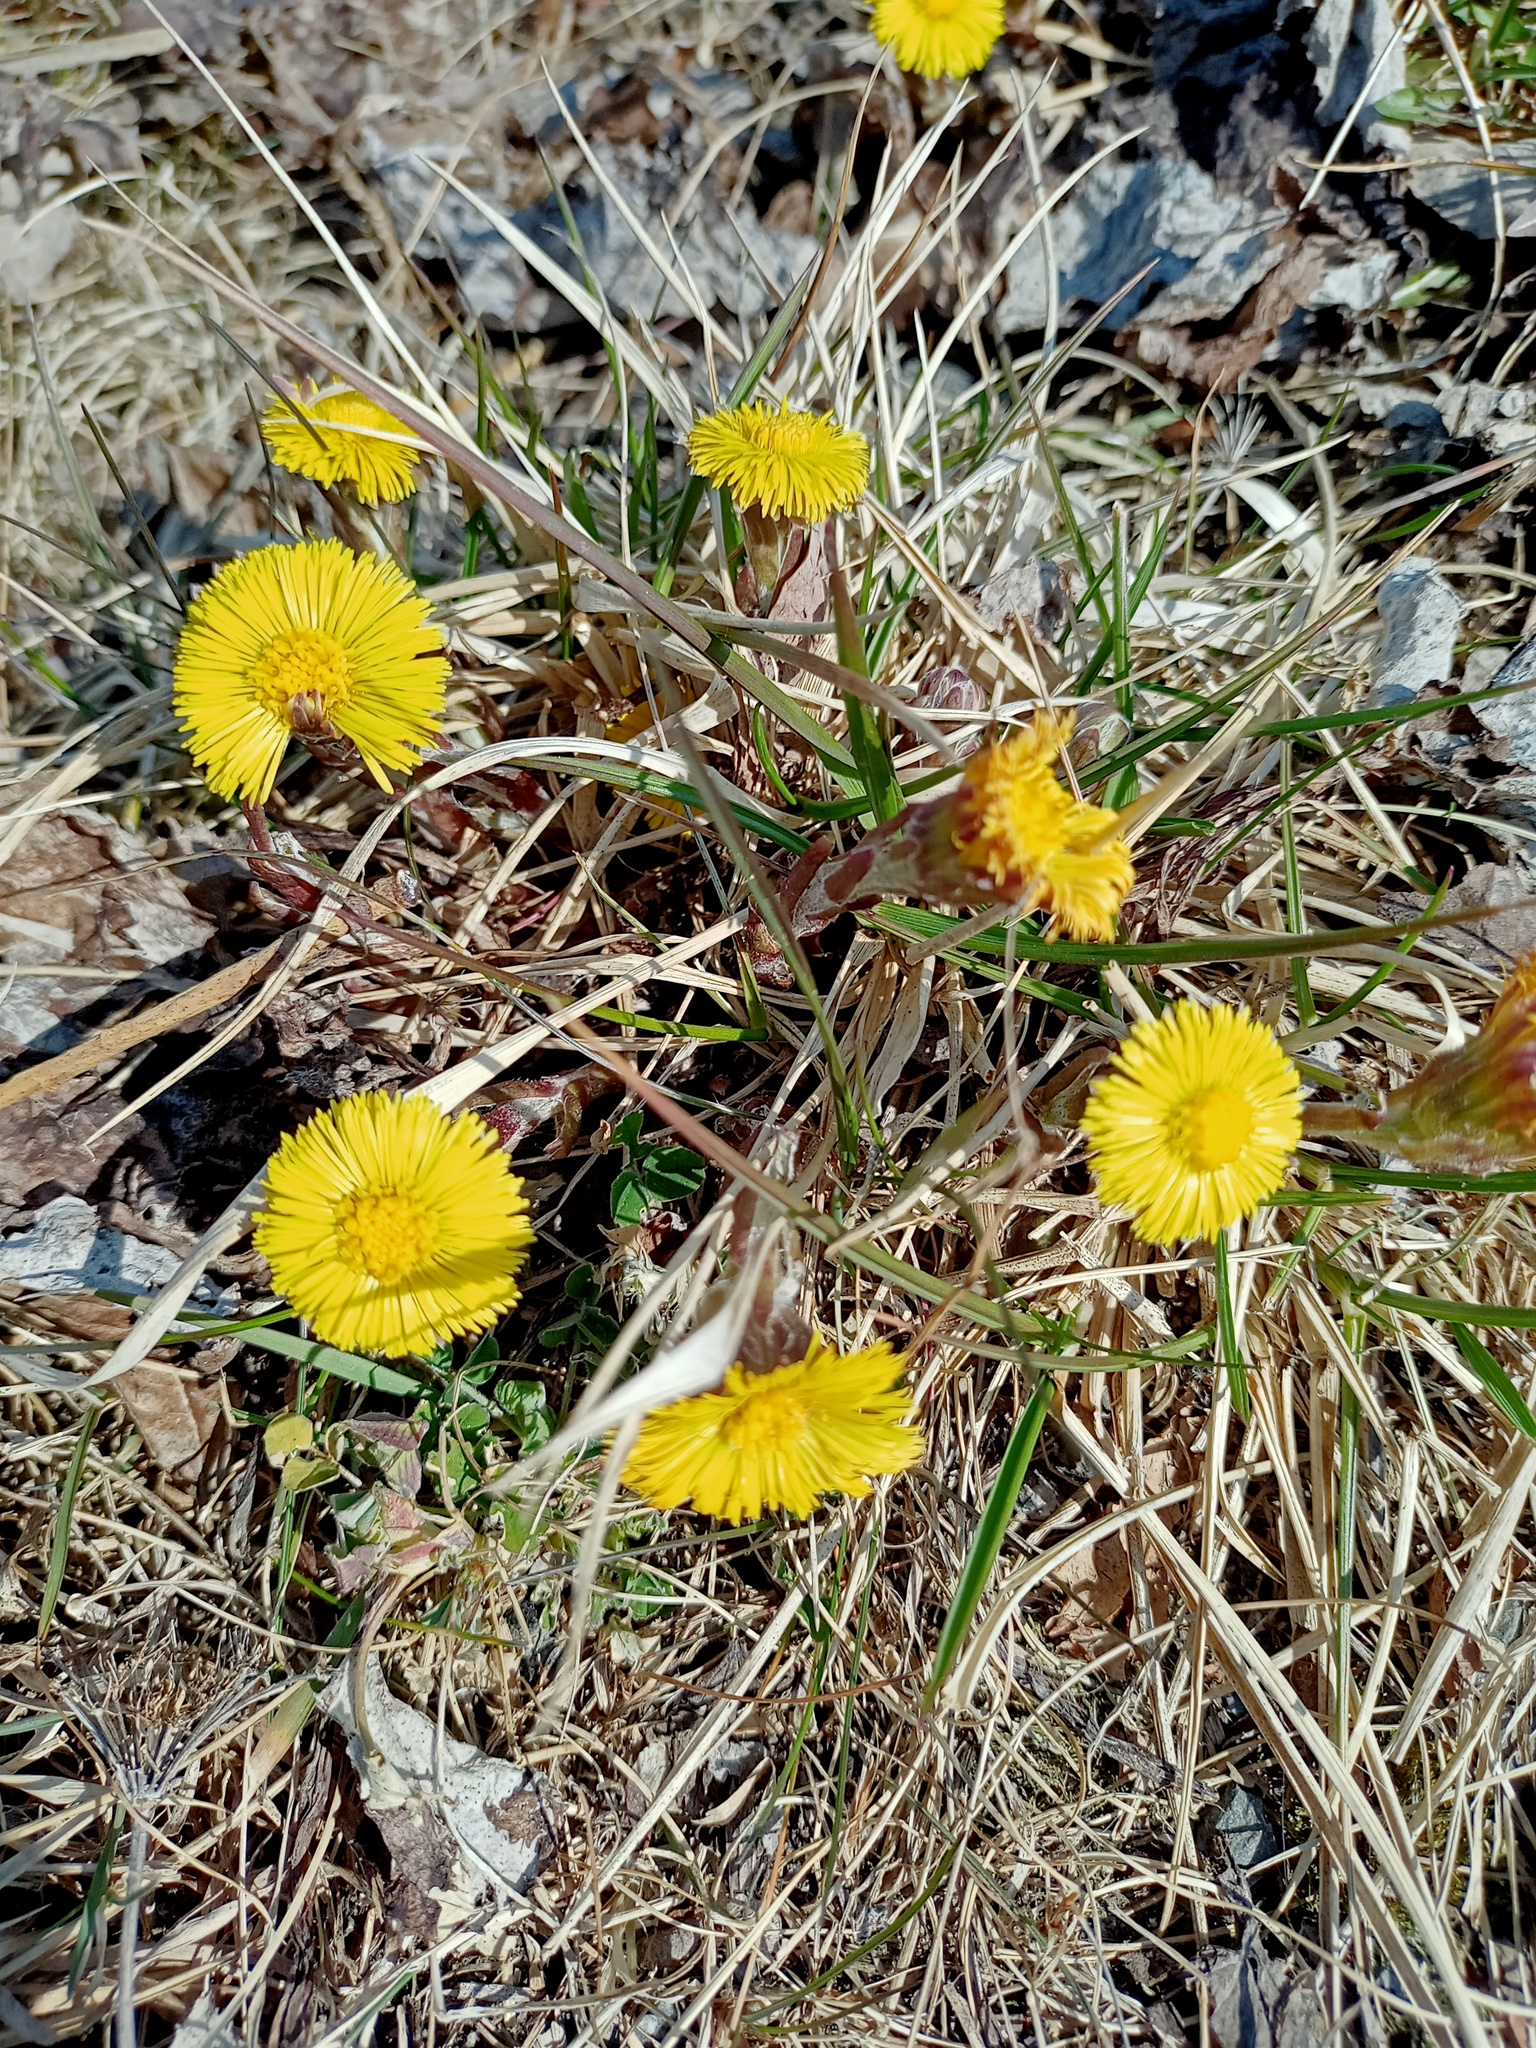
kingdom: Plantae
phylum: Tracheophyta
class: Magnoliopsida
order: Asterales
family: Asteraceae
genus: Tussilago
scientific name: Tussilago farfara
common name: Coltsfoot
